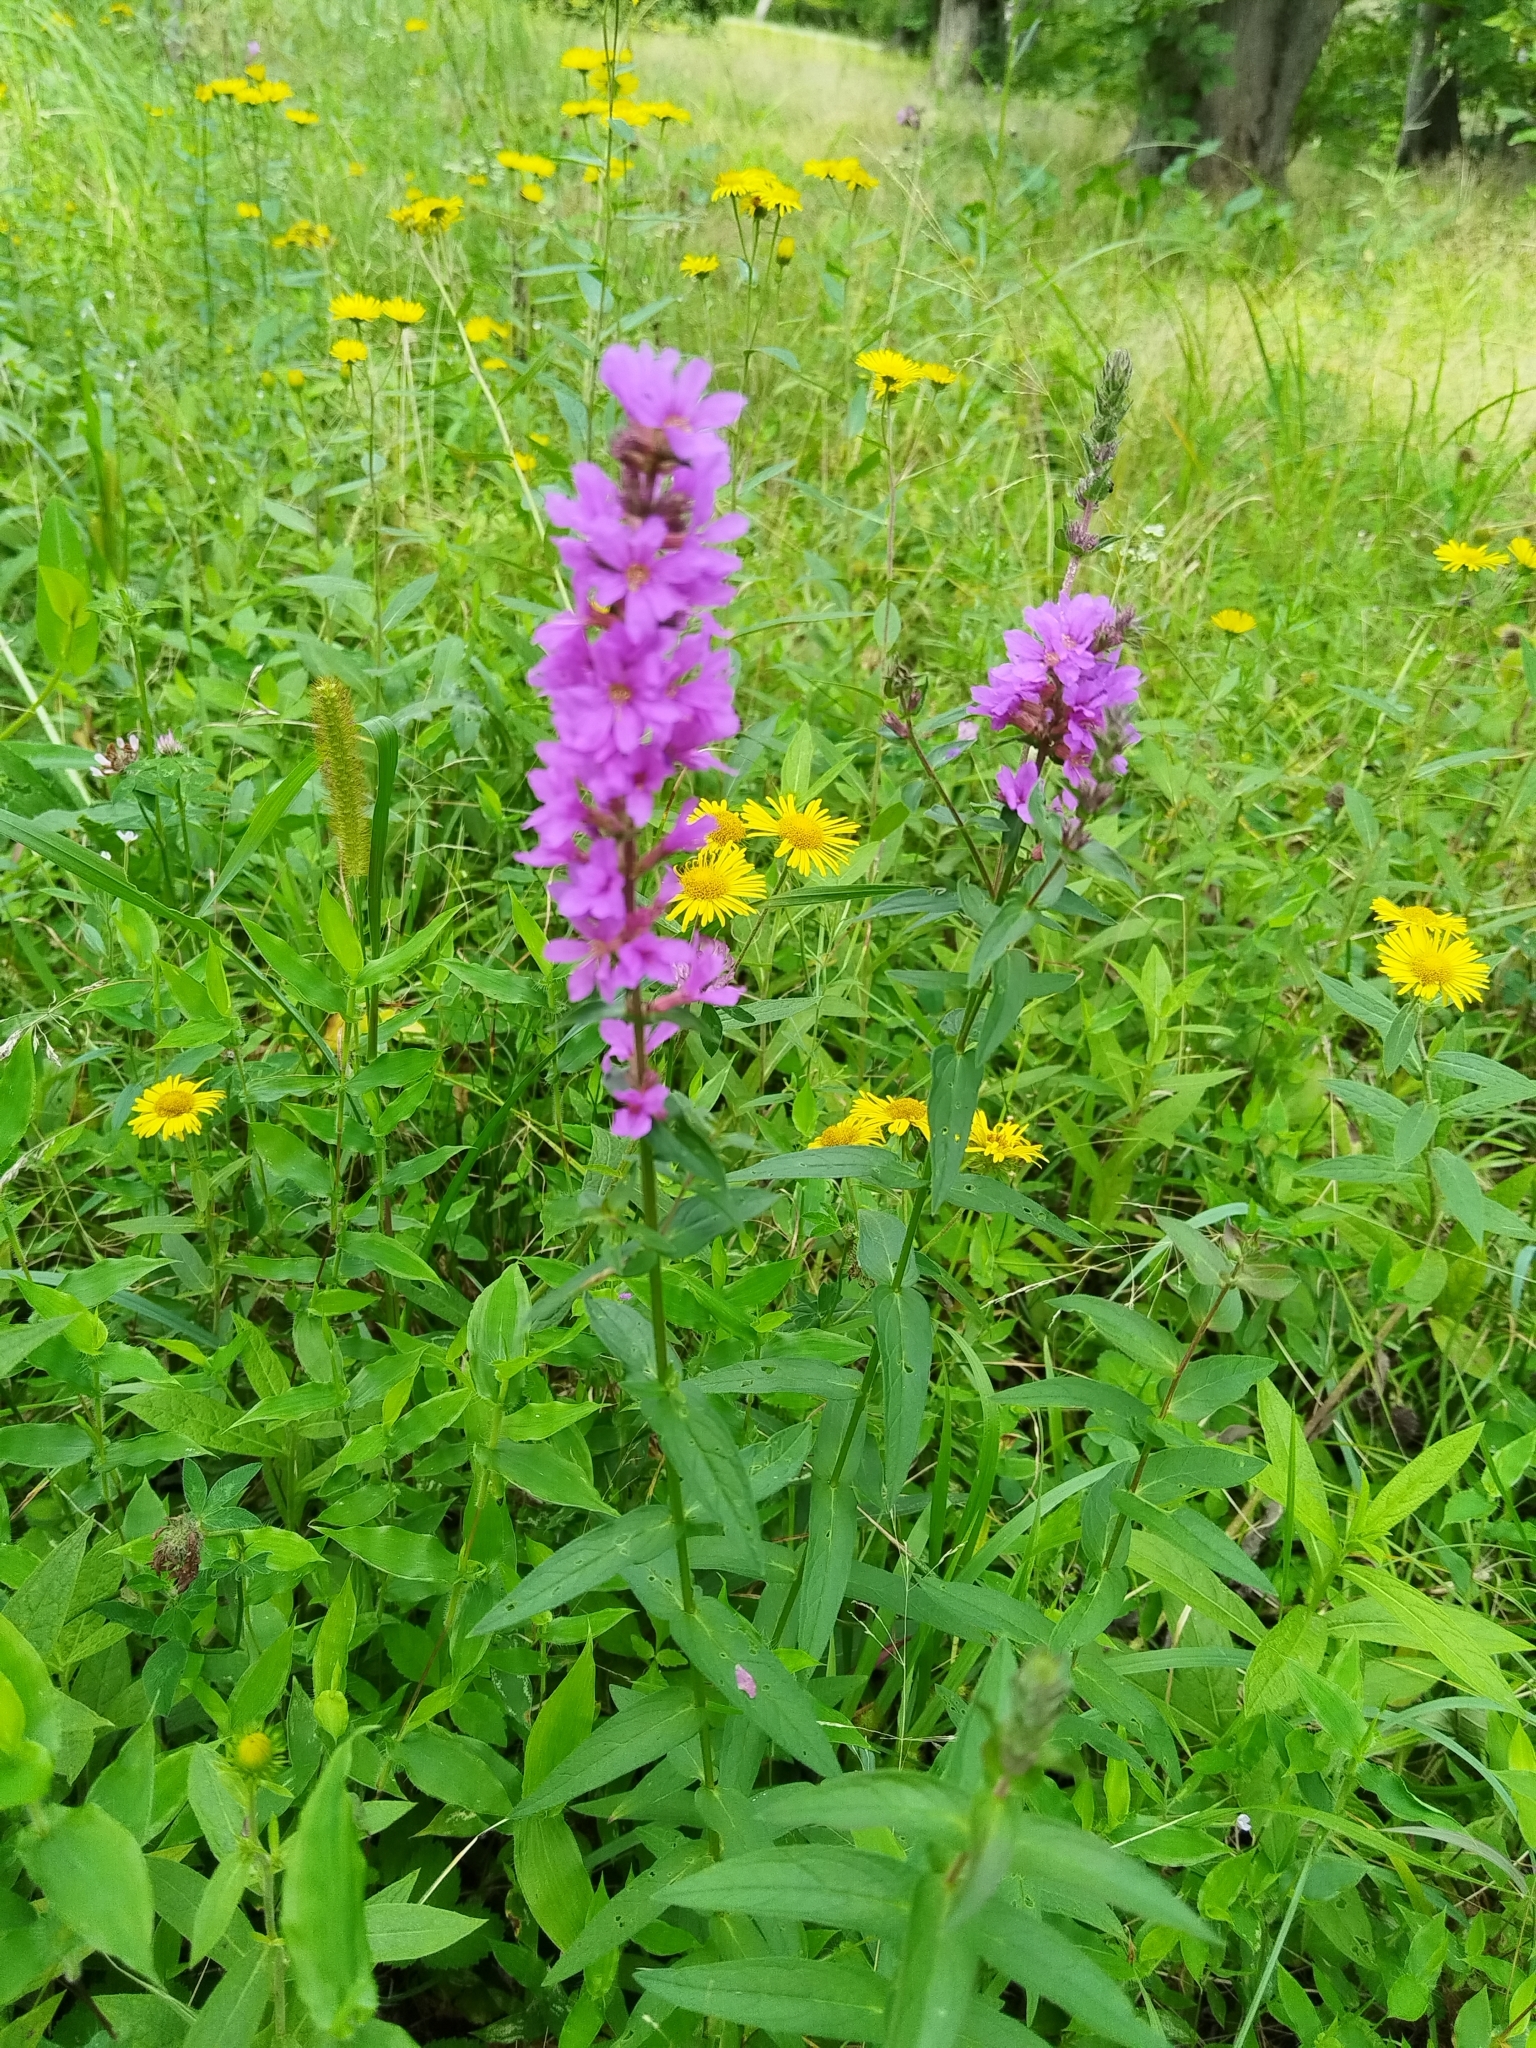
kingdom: Plantae
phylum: Tracheophyta
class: Magnoliopsida
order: Myrtales
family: Lythraceae
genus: Lythrum
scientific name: Lythrum salicaria
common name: Purple loosestrife
